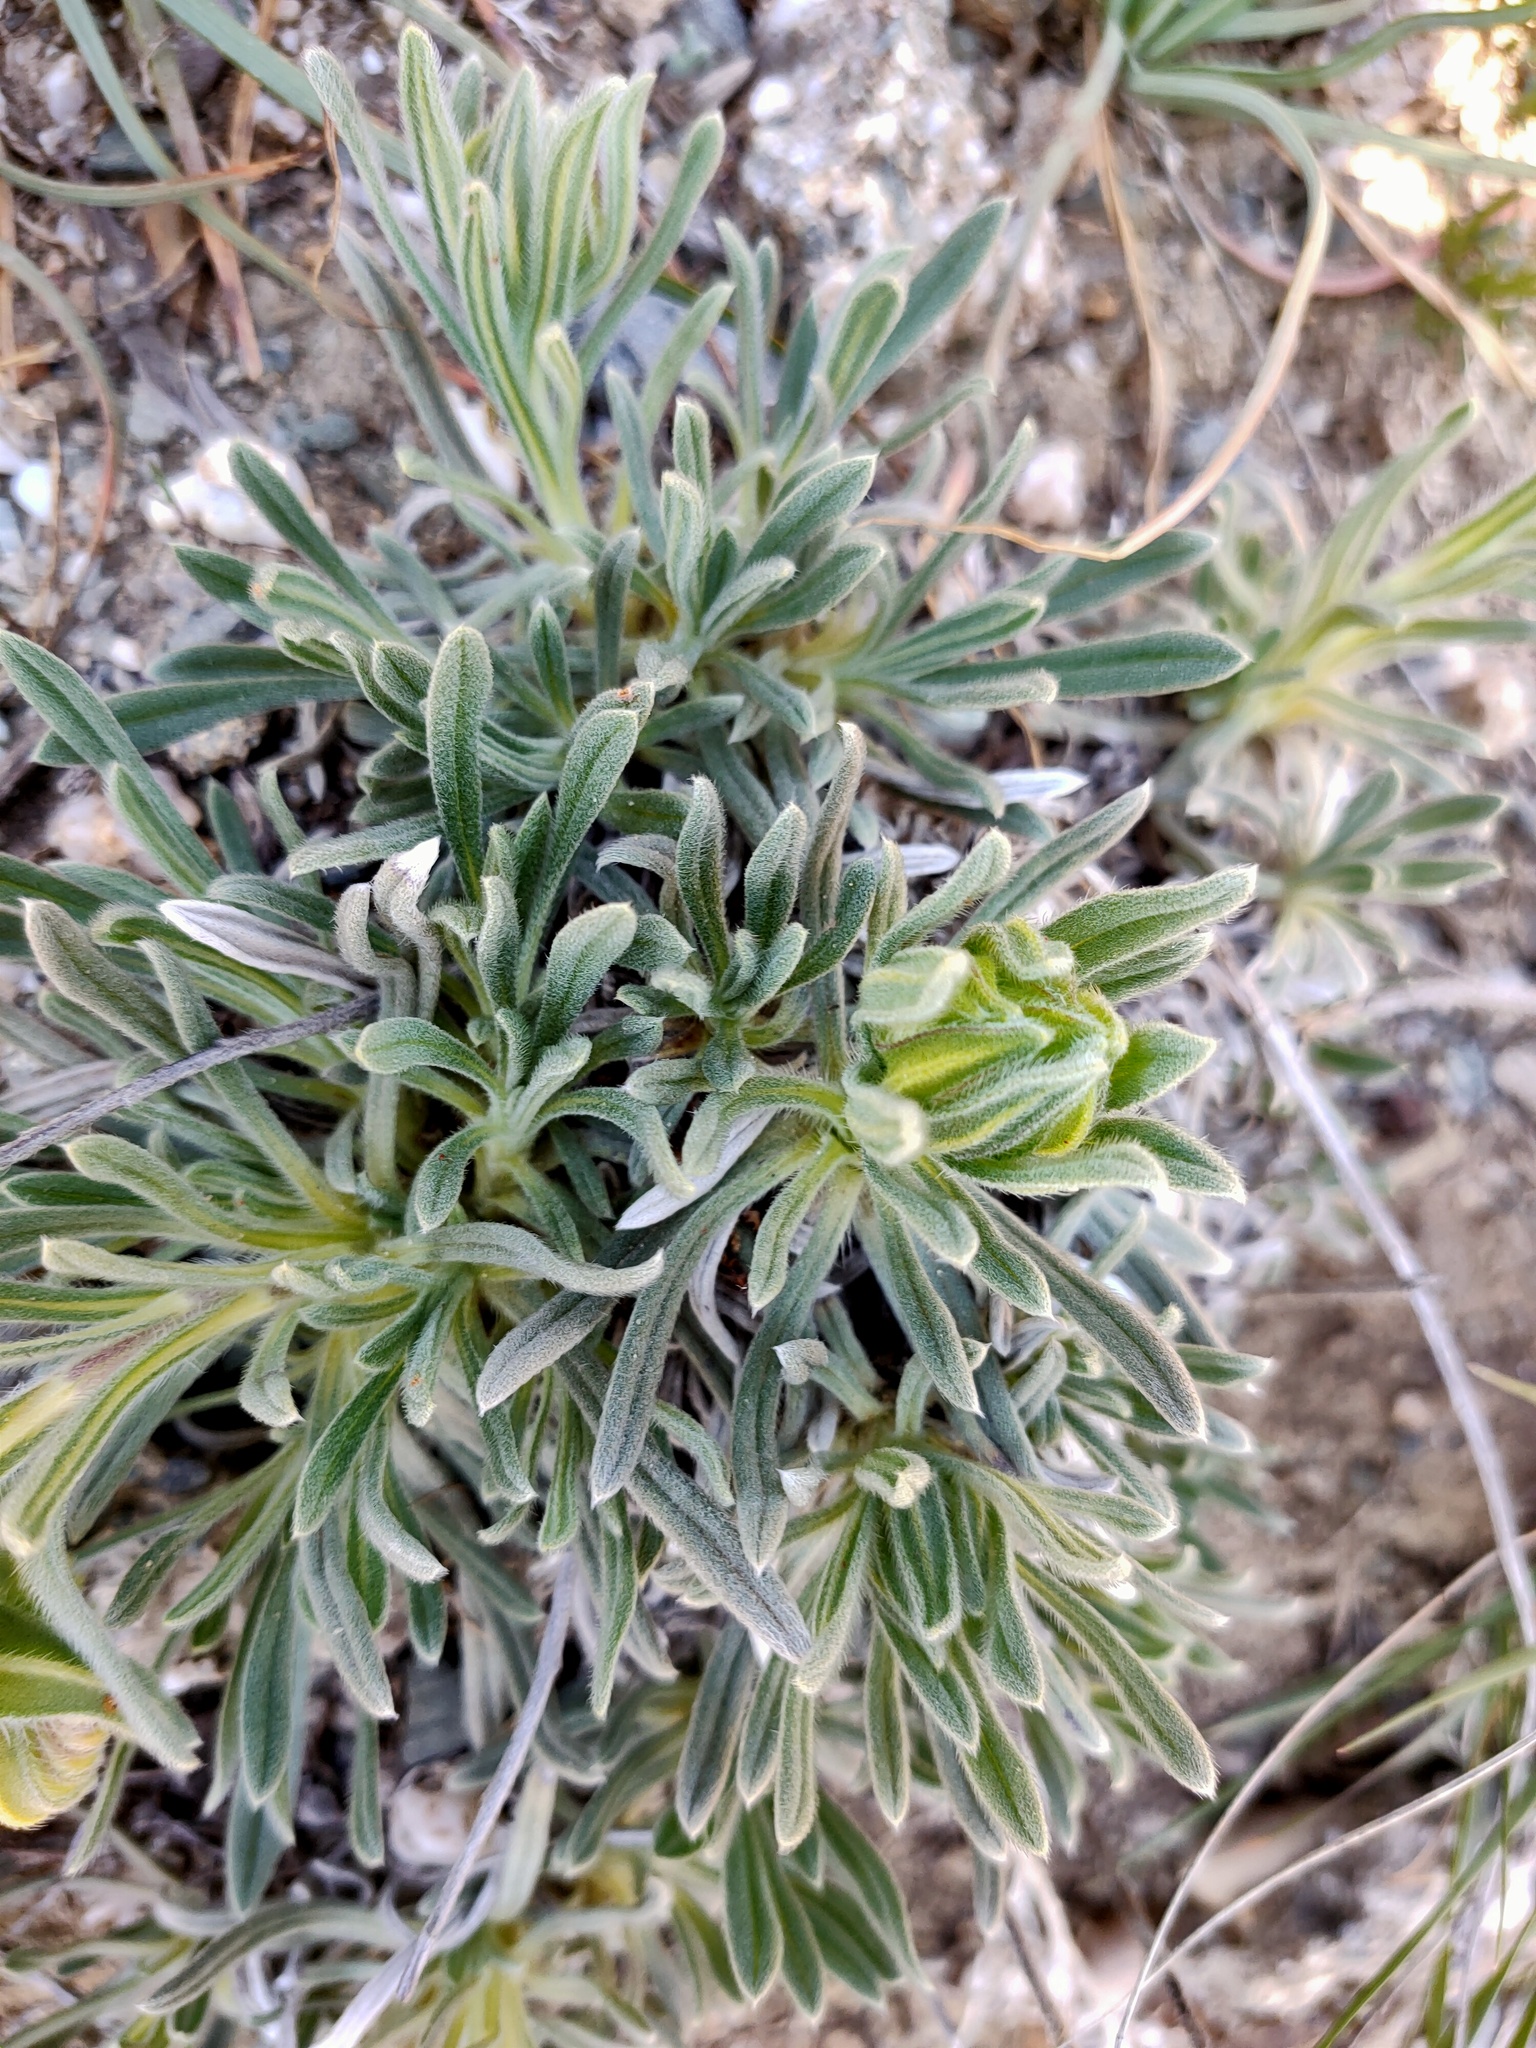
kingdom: Plantae
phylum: Tracheophyta
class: Magnoliopsida
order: Boraginales
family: Boraginaceae
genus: Onosma
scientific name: Onosma taurica
